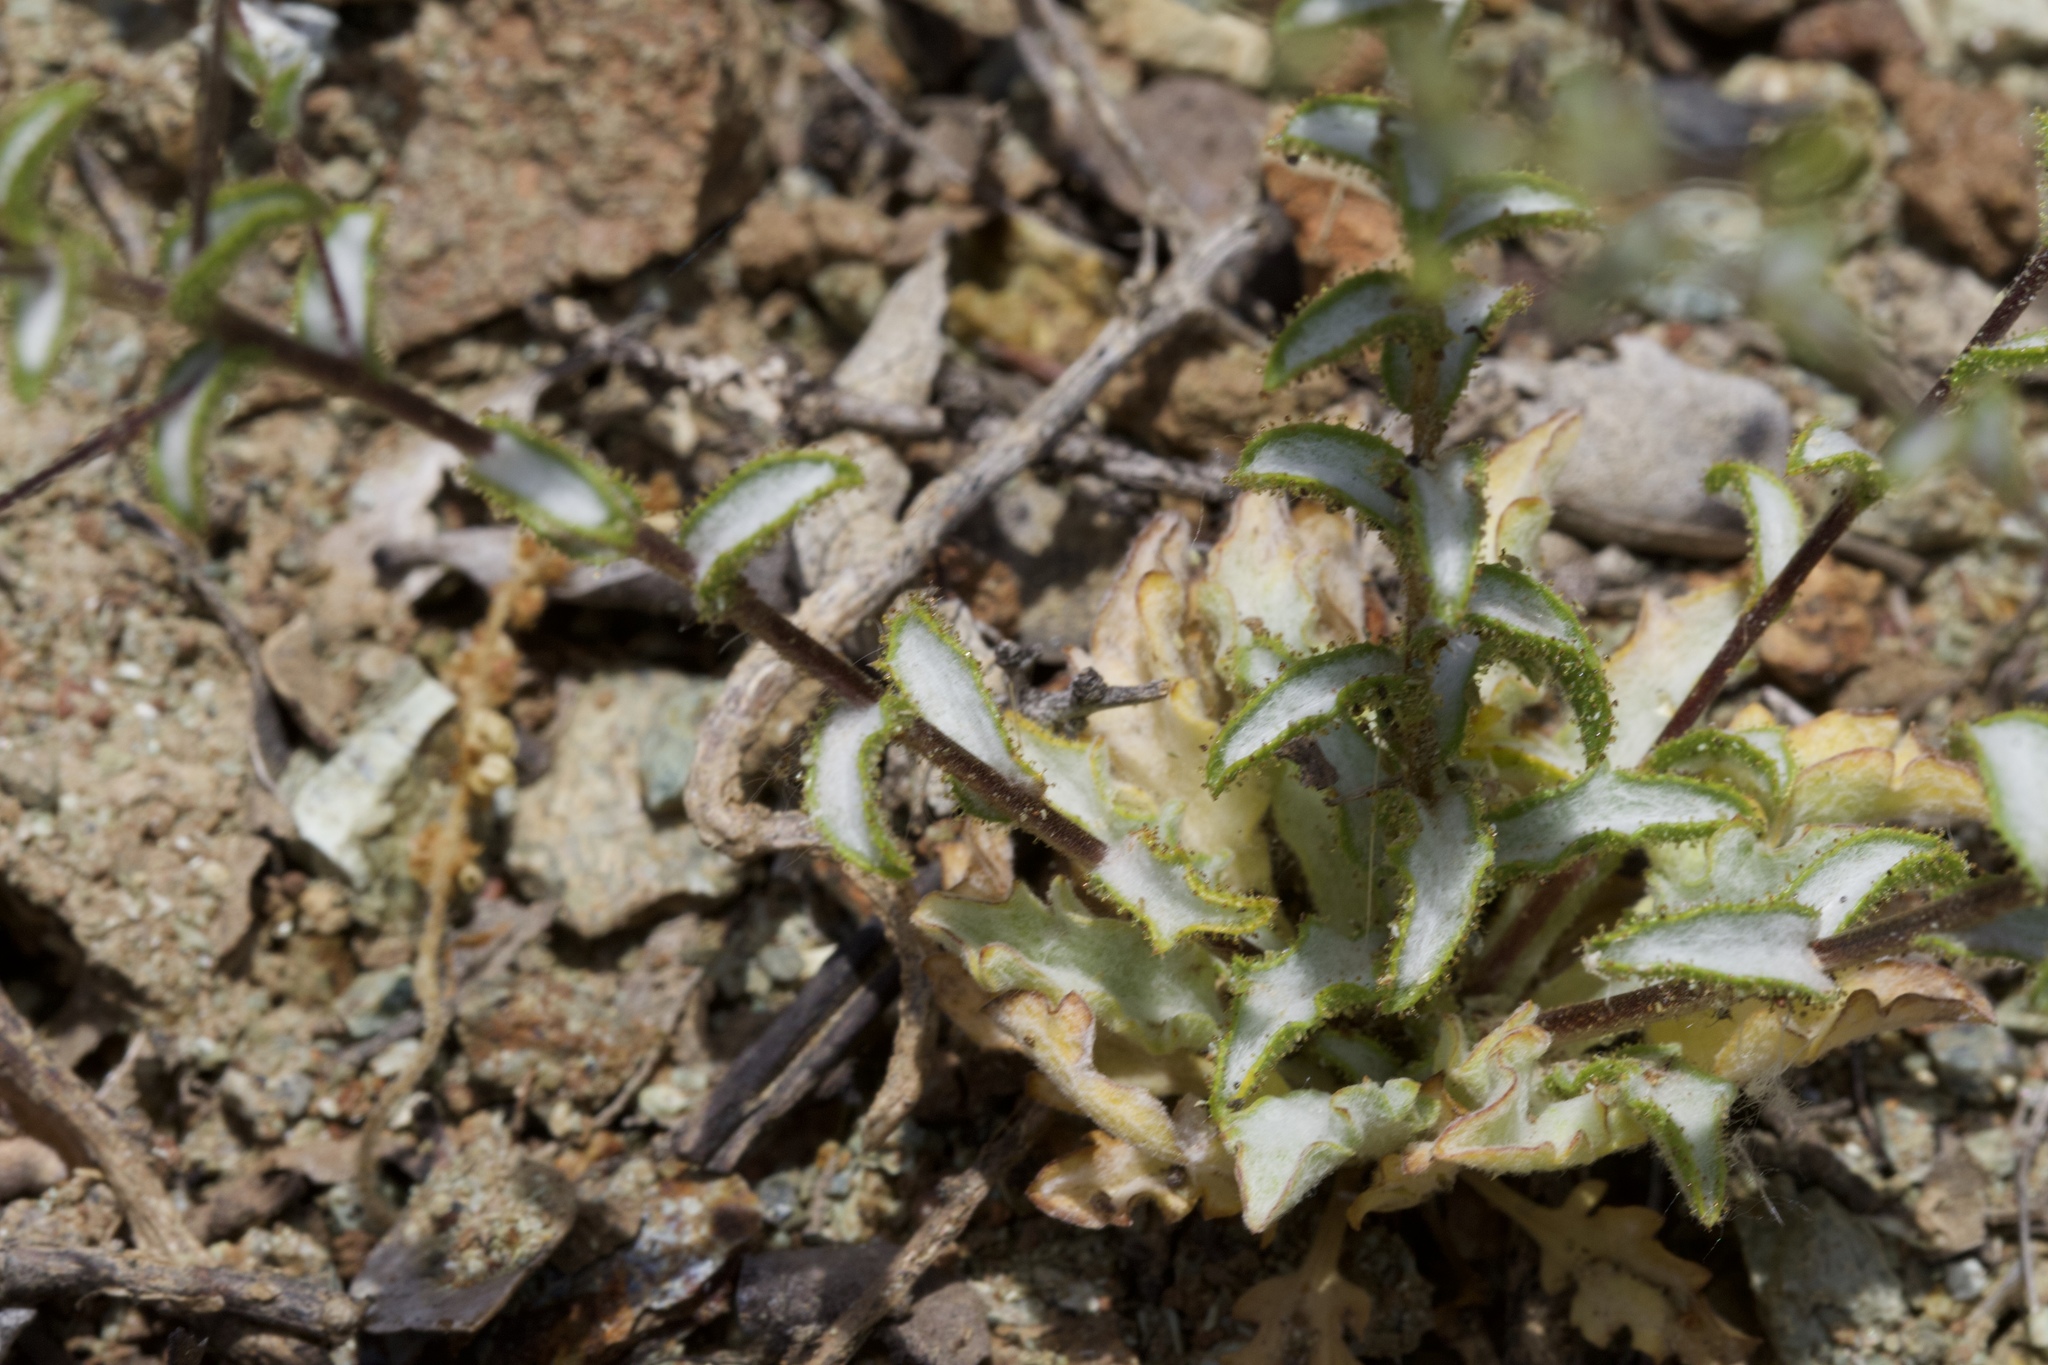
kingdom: Plantae
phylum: Tracheophyta
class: Magnoliopsida
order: Asterales
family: Asteraceae
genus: Lessingia
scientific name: Lessingia ramulosa
